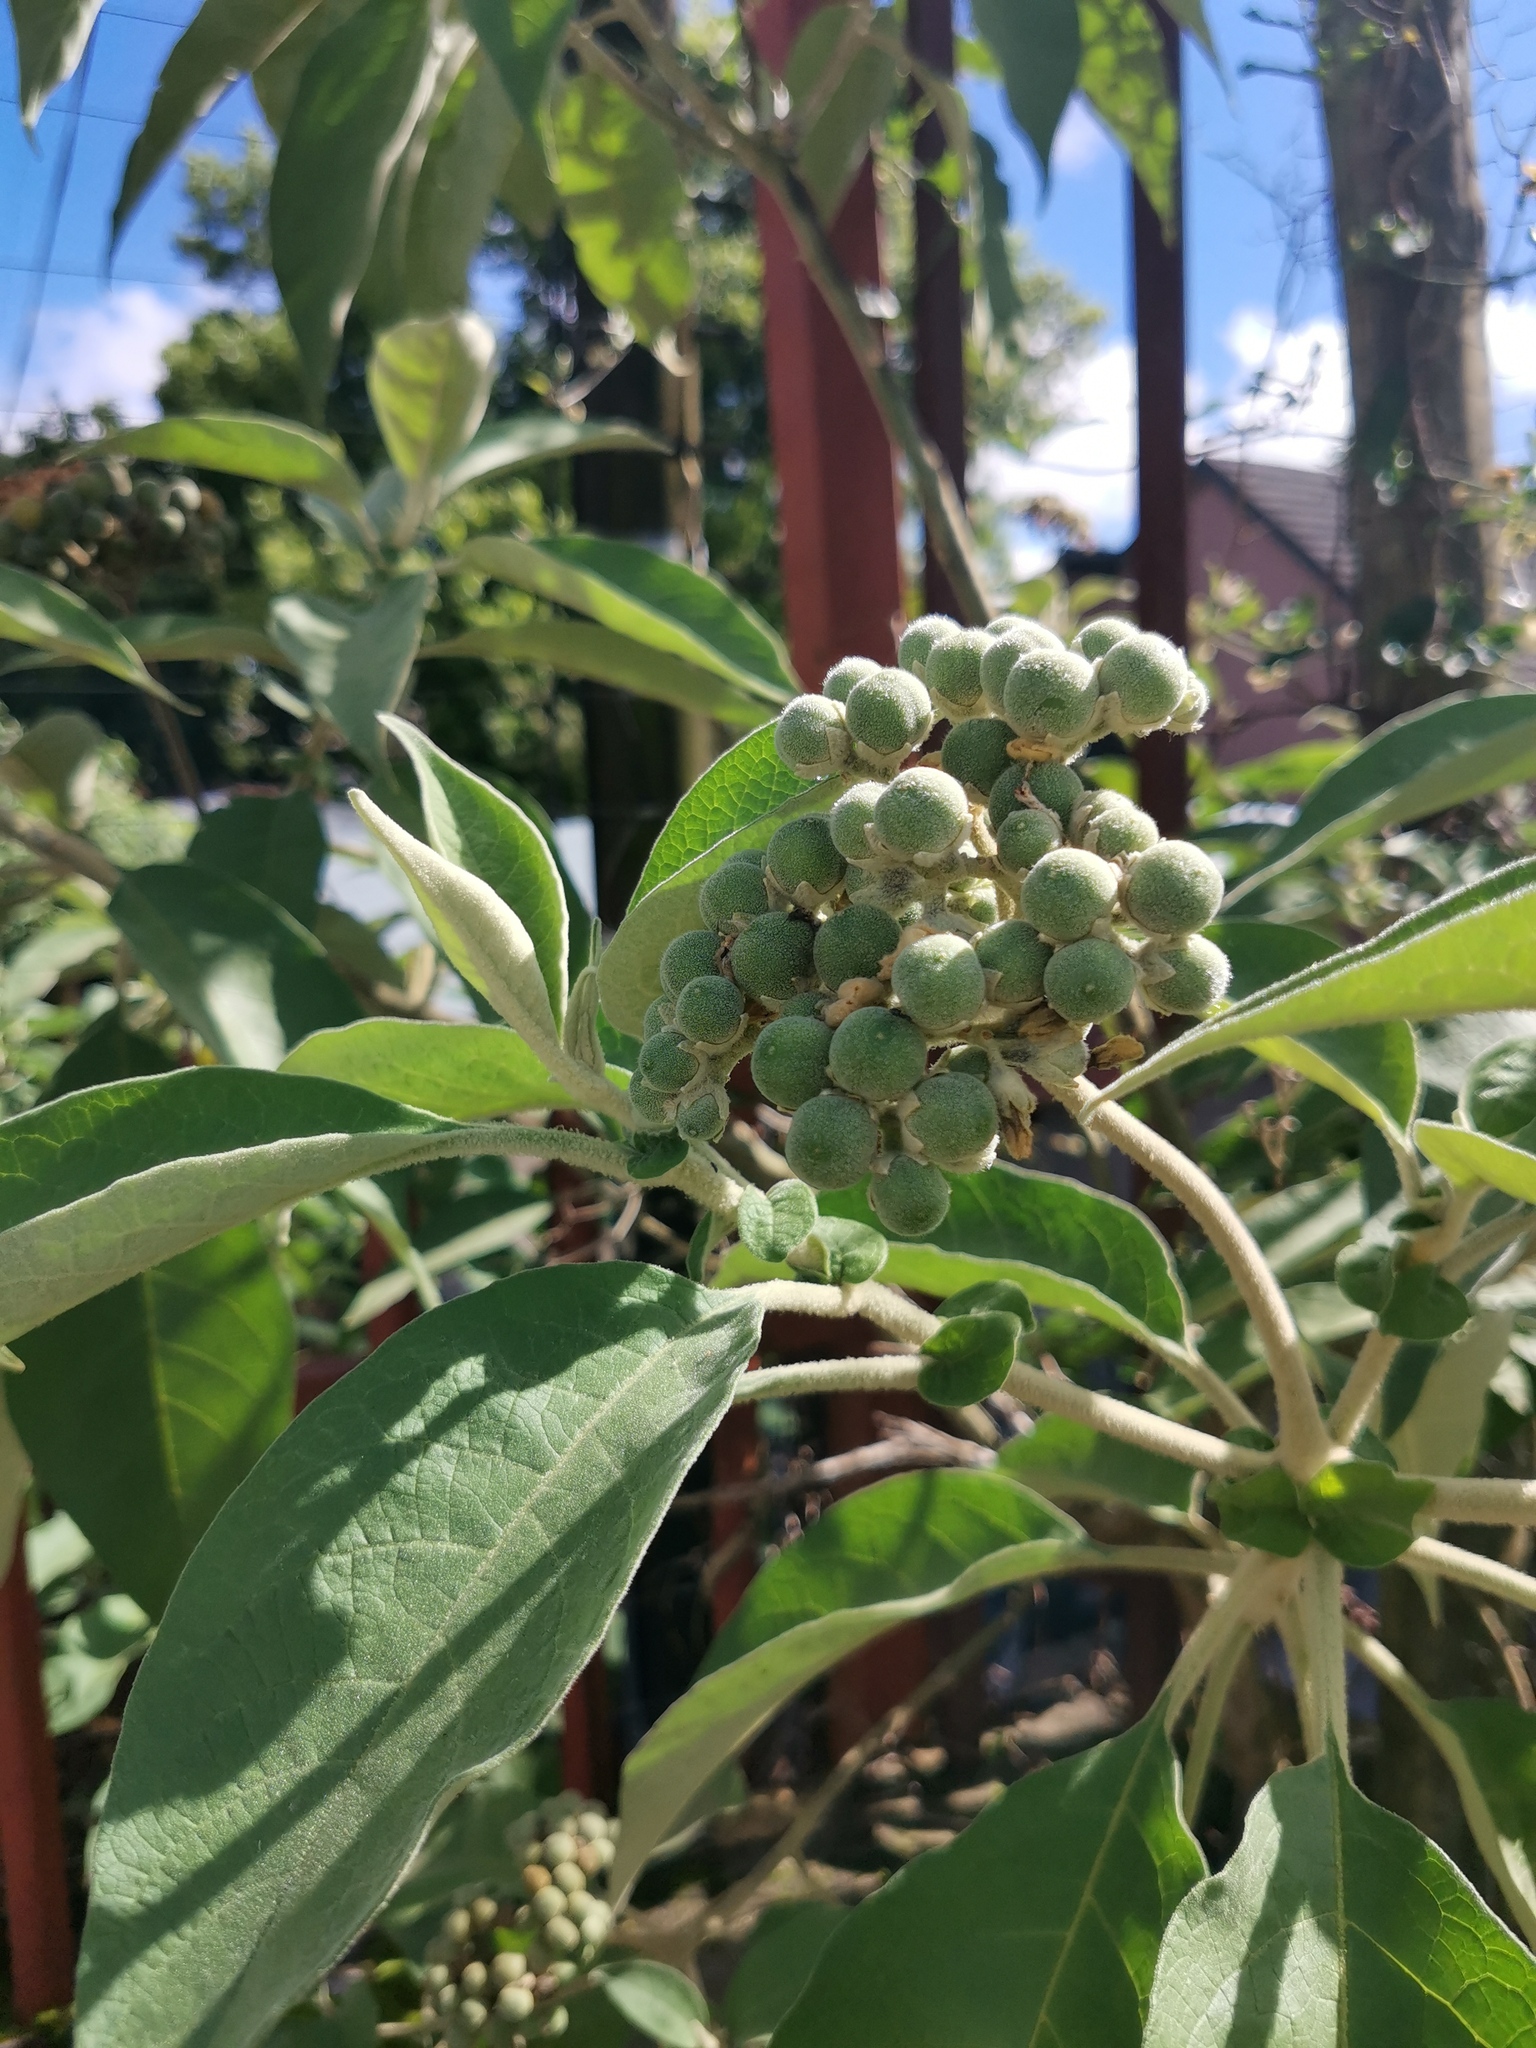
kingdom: Plantae
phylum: Tracheophyta
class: Magnoliopsida
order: Solanales
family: Solanaceae
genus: Solanum
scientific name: Solanum mauritianum
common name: Earleaf nightshade
